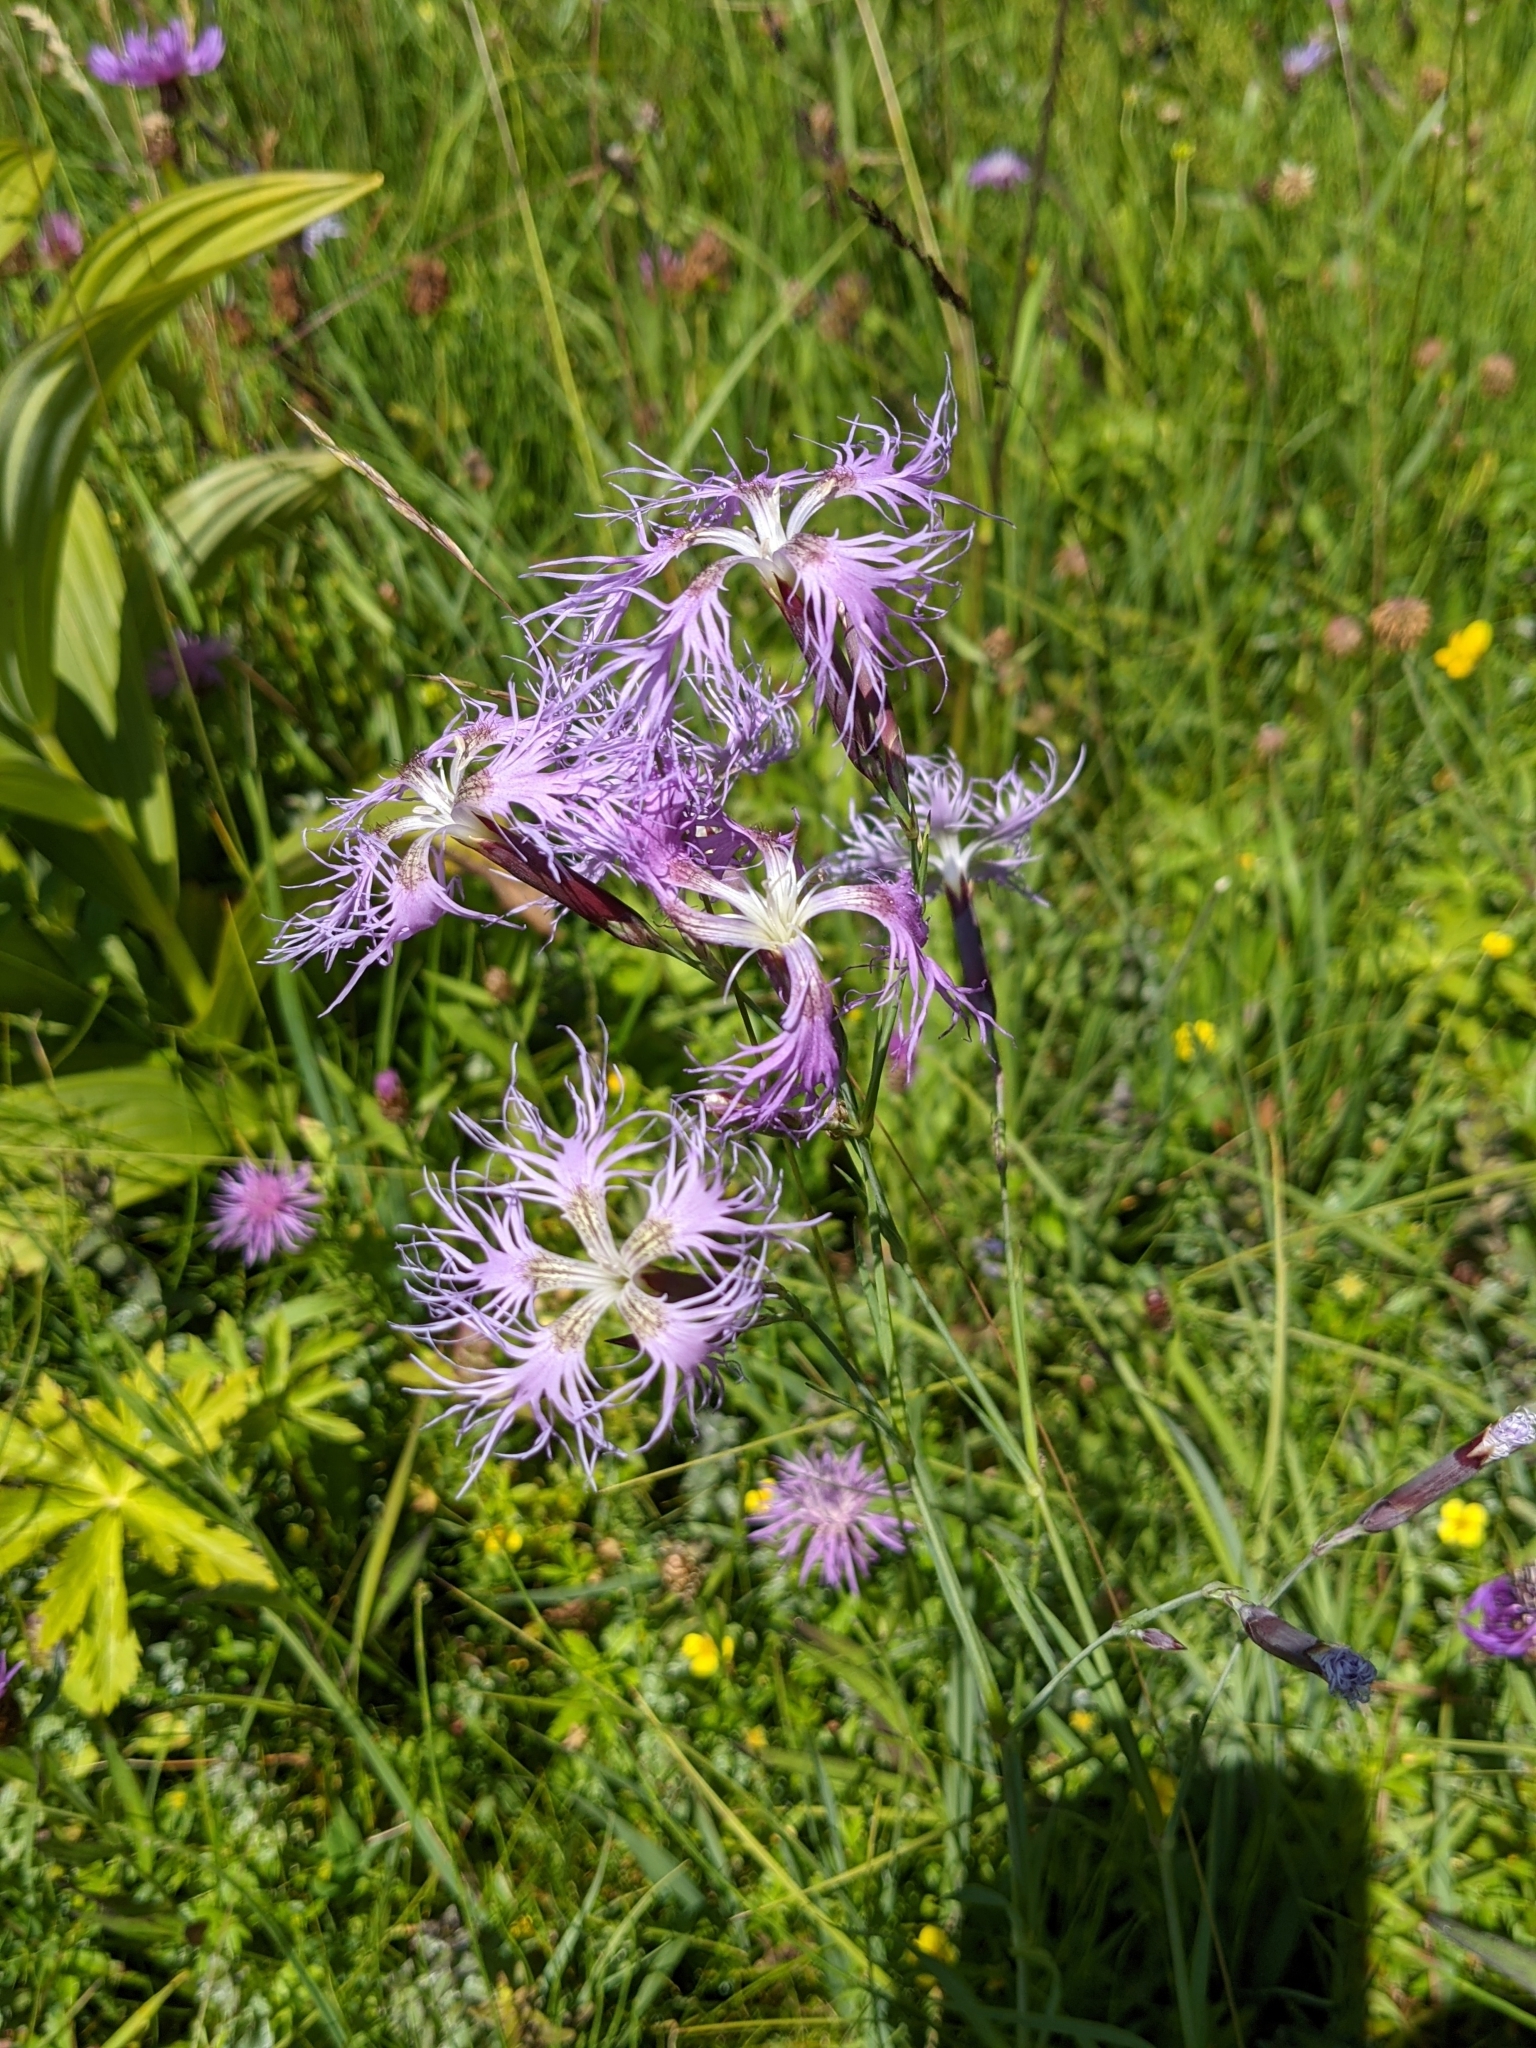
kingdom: Plantae
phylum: Tracheophyta
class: Magnoliopsida
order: Caryophyllales
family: Caryophyllaceae
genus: Dianthus
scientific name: Dianthus superbus
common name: Fringed pink
